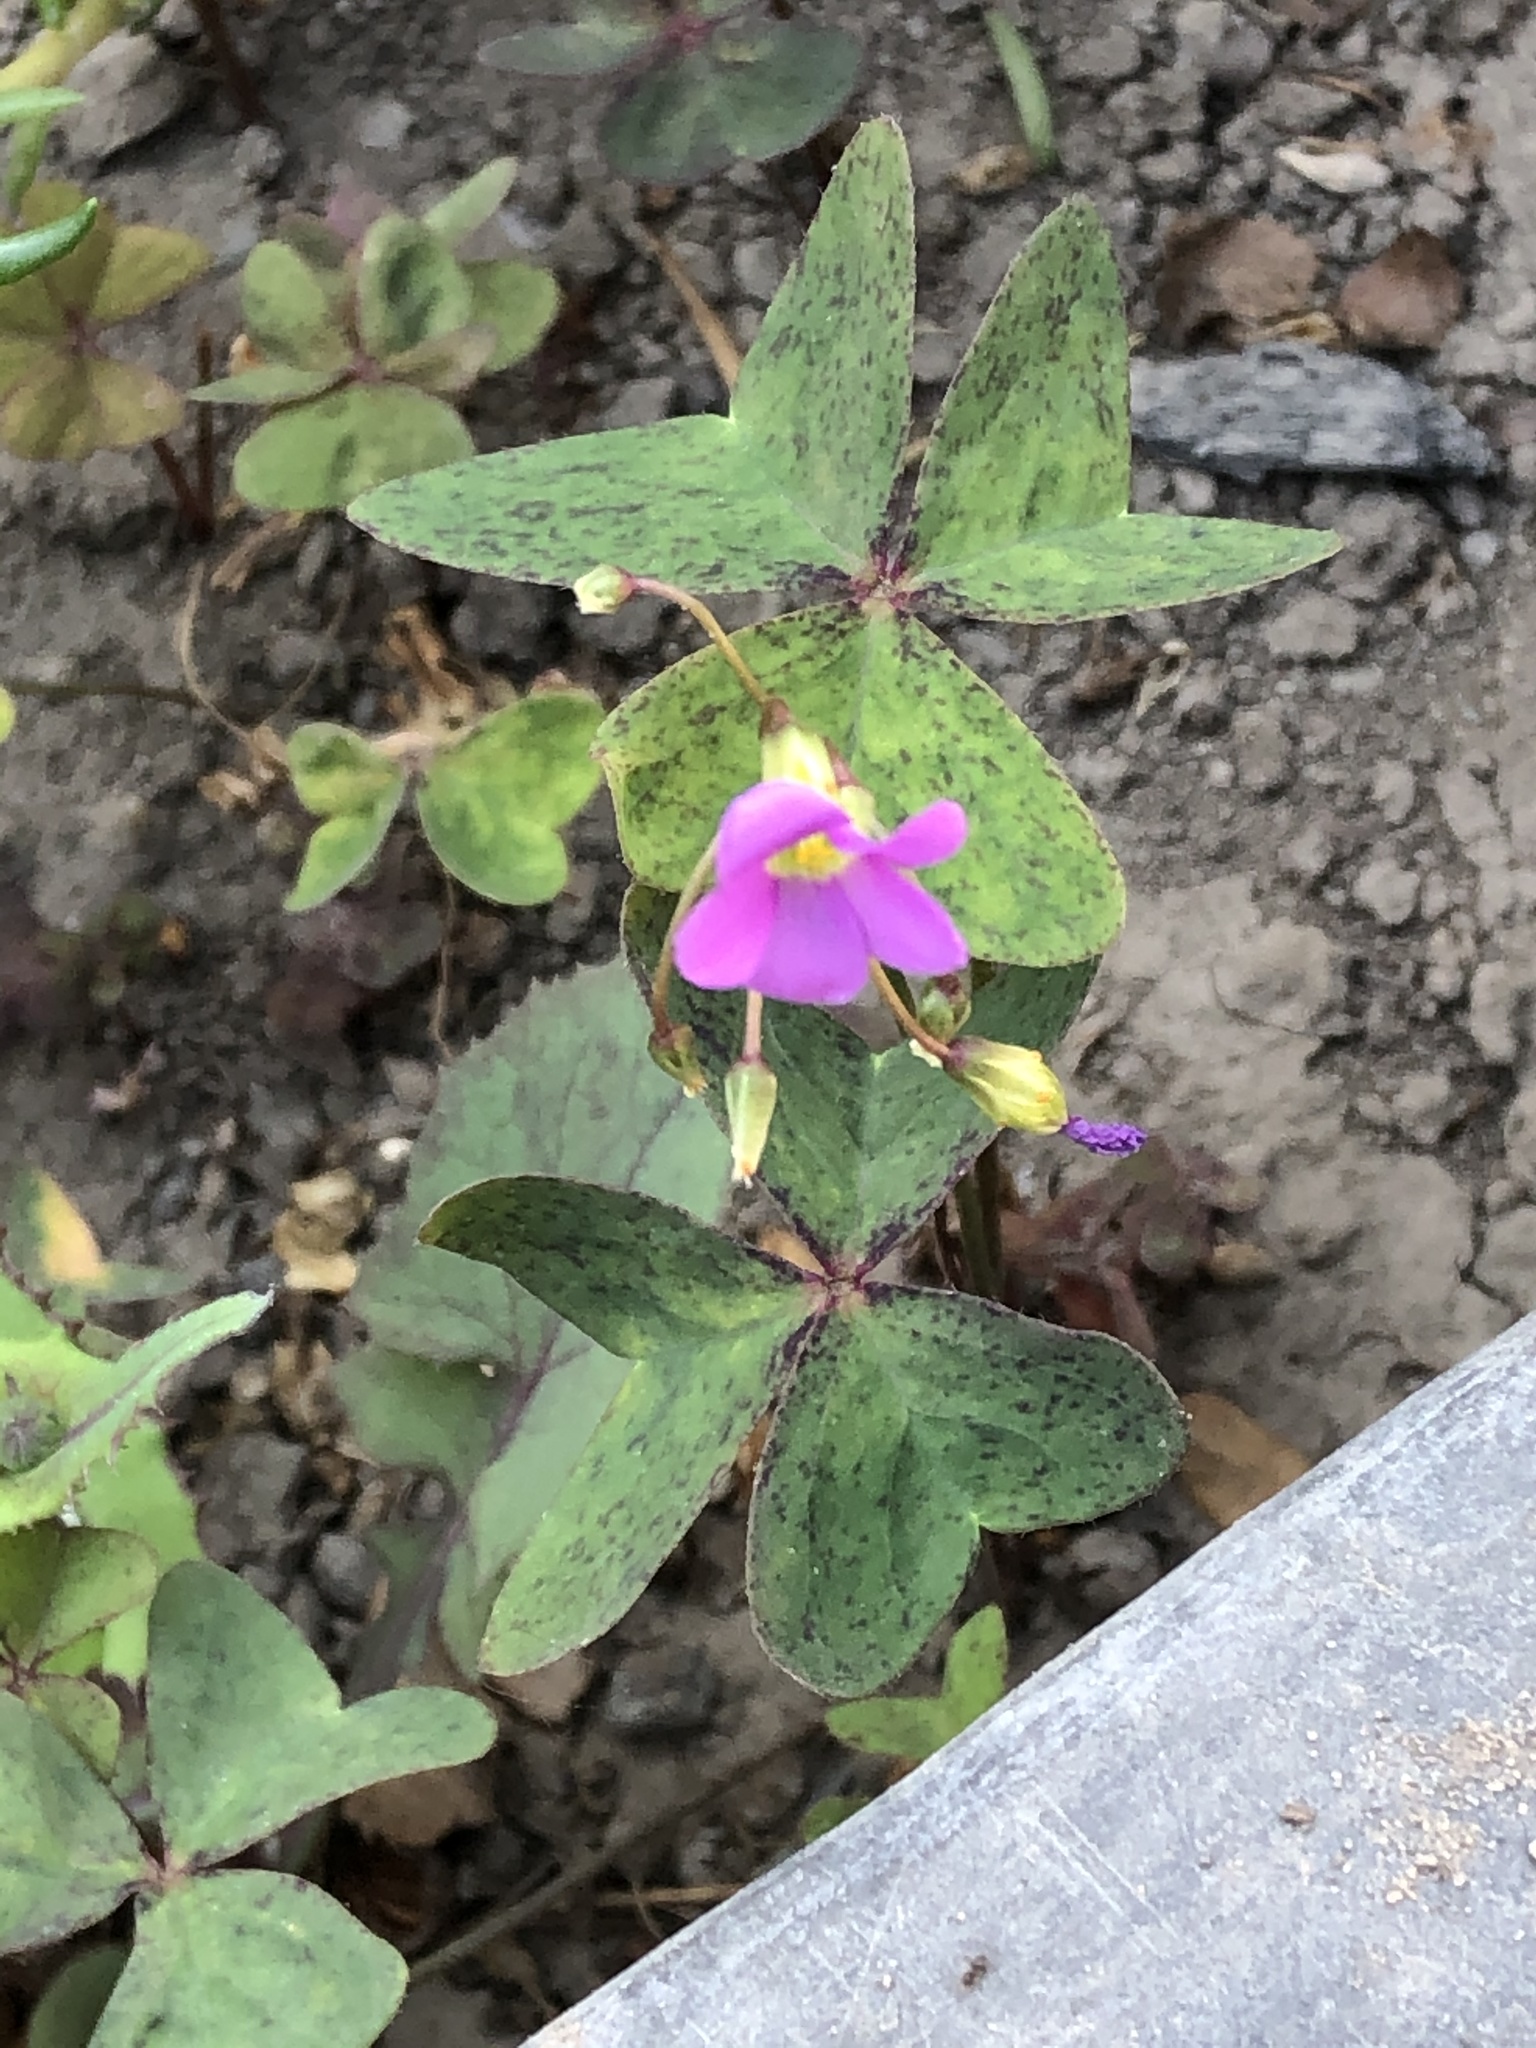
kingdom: Plantae
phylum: Tracheophyta
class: Magnoliopsida
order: Oxalidales
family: Oxalidaceae
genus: Oxalis
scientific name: Oxalis latifolia
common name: Garden pink-sorrel
